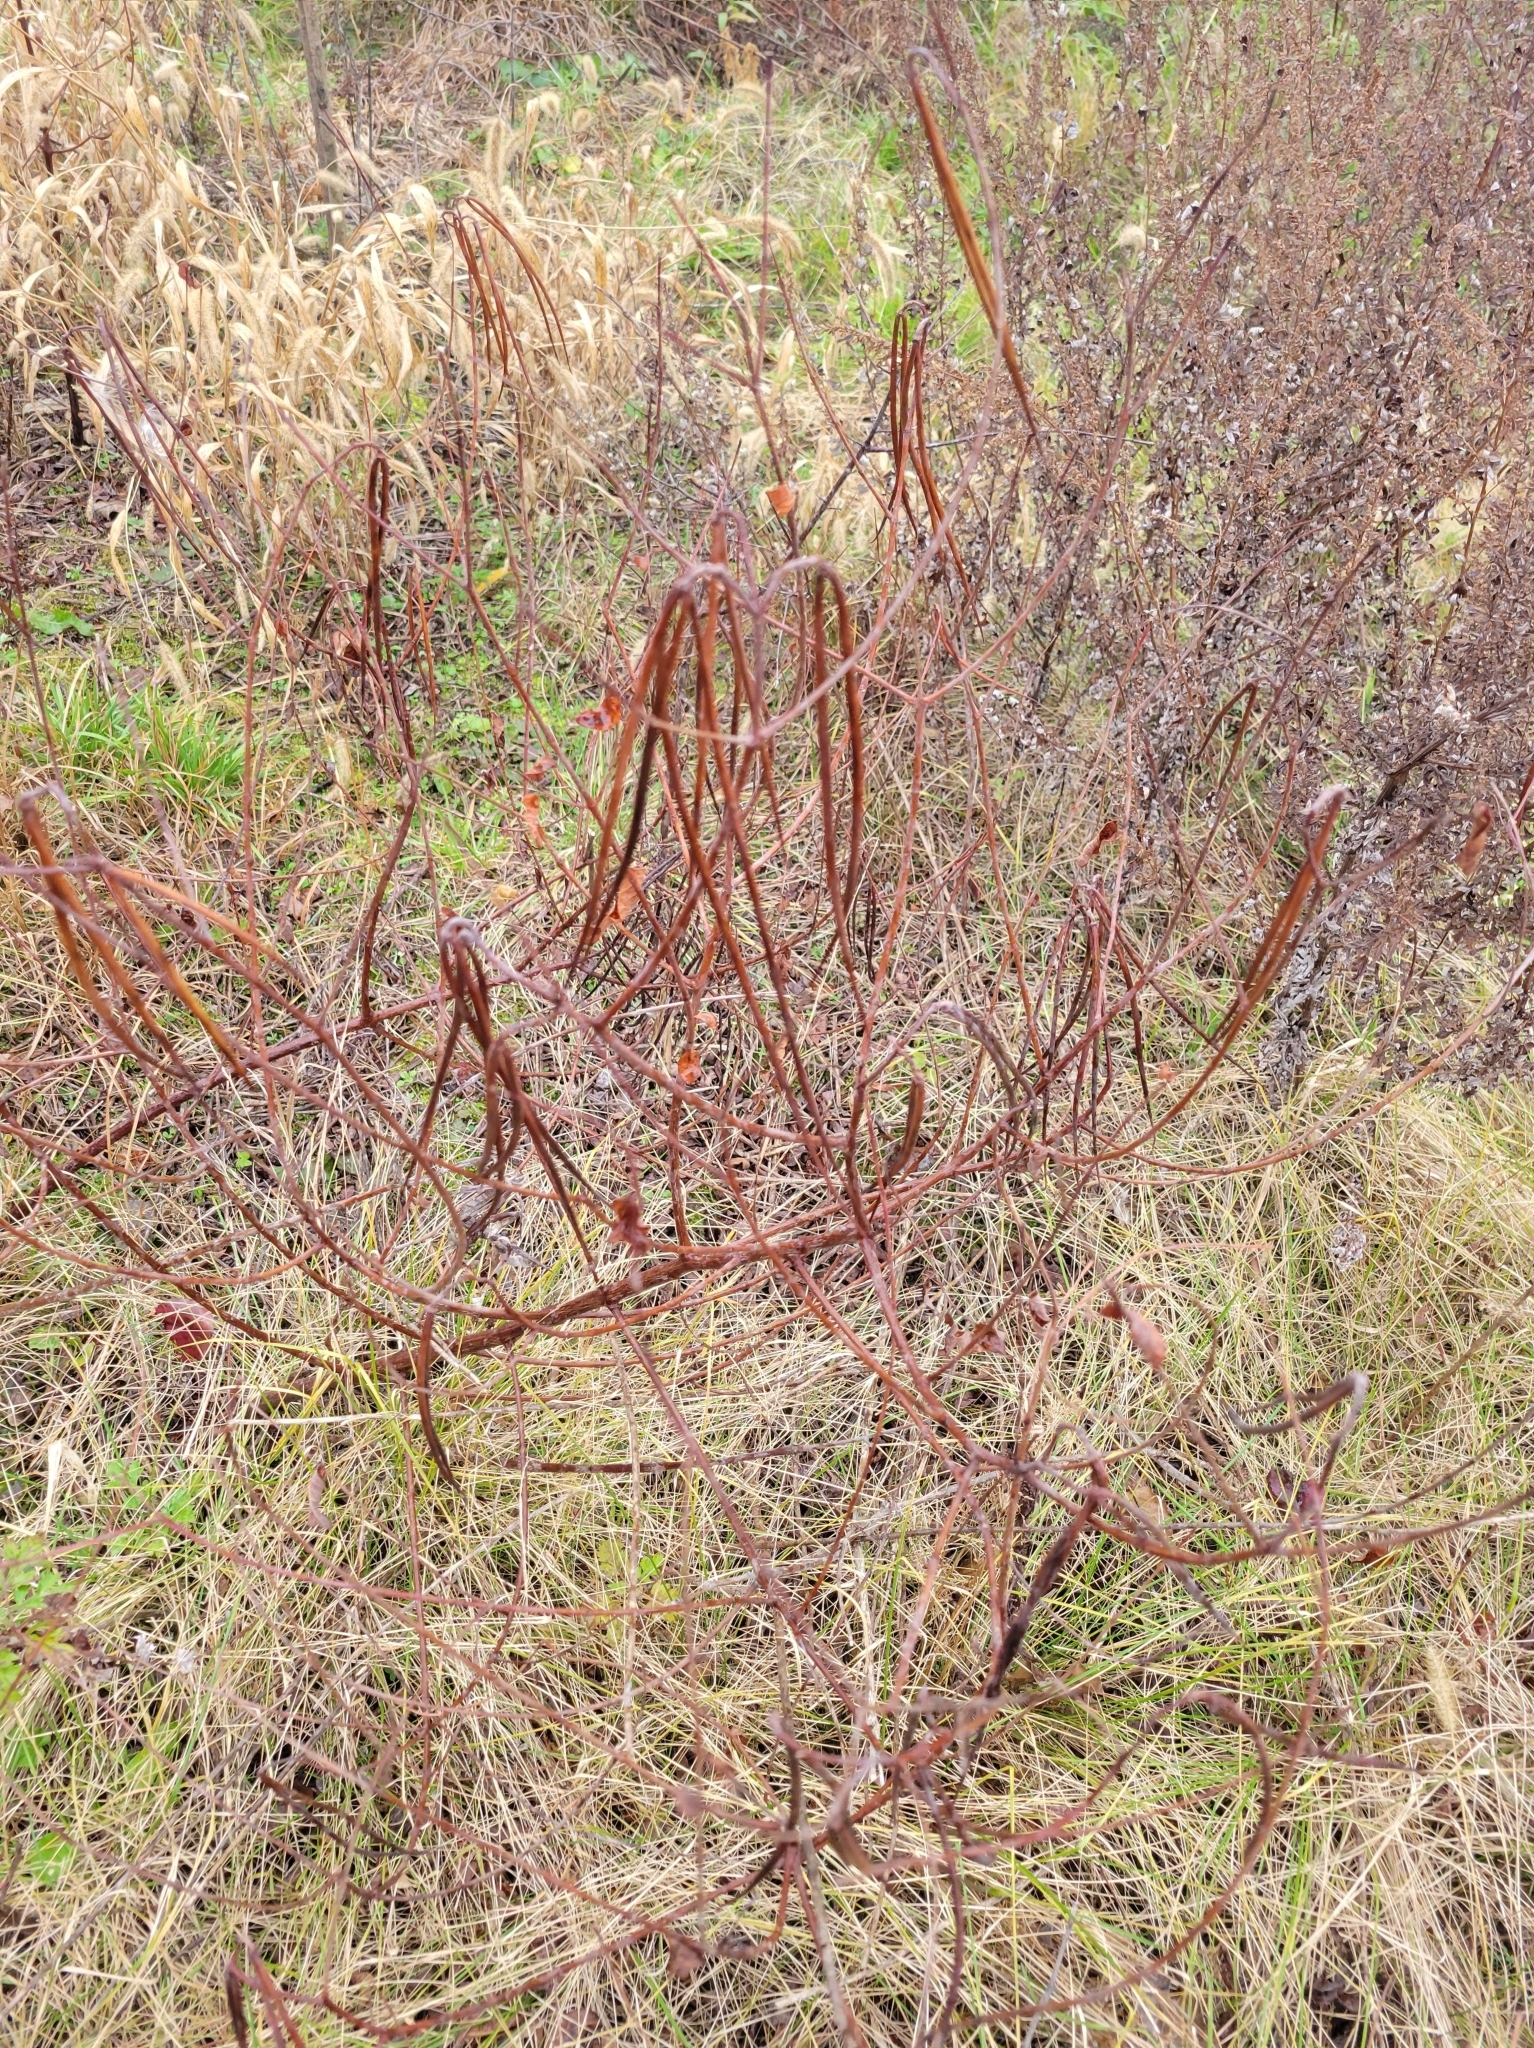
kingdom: Plantae
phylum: Tracheophyta
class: Magnoliopsida
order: Gentianales
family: Apocynaceae
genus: Apocynum
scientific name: Apocynum cannabinum
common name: Hemp dogbane
